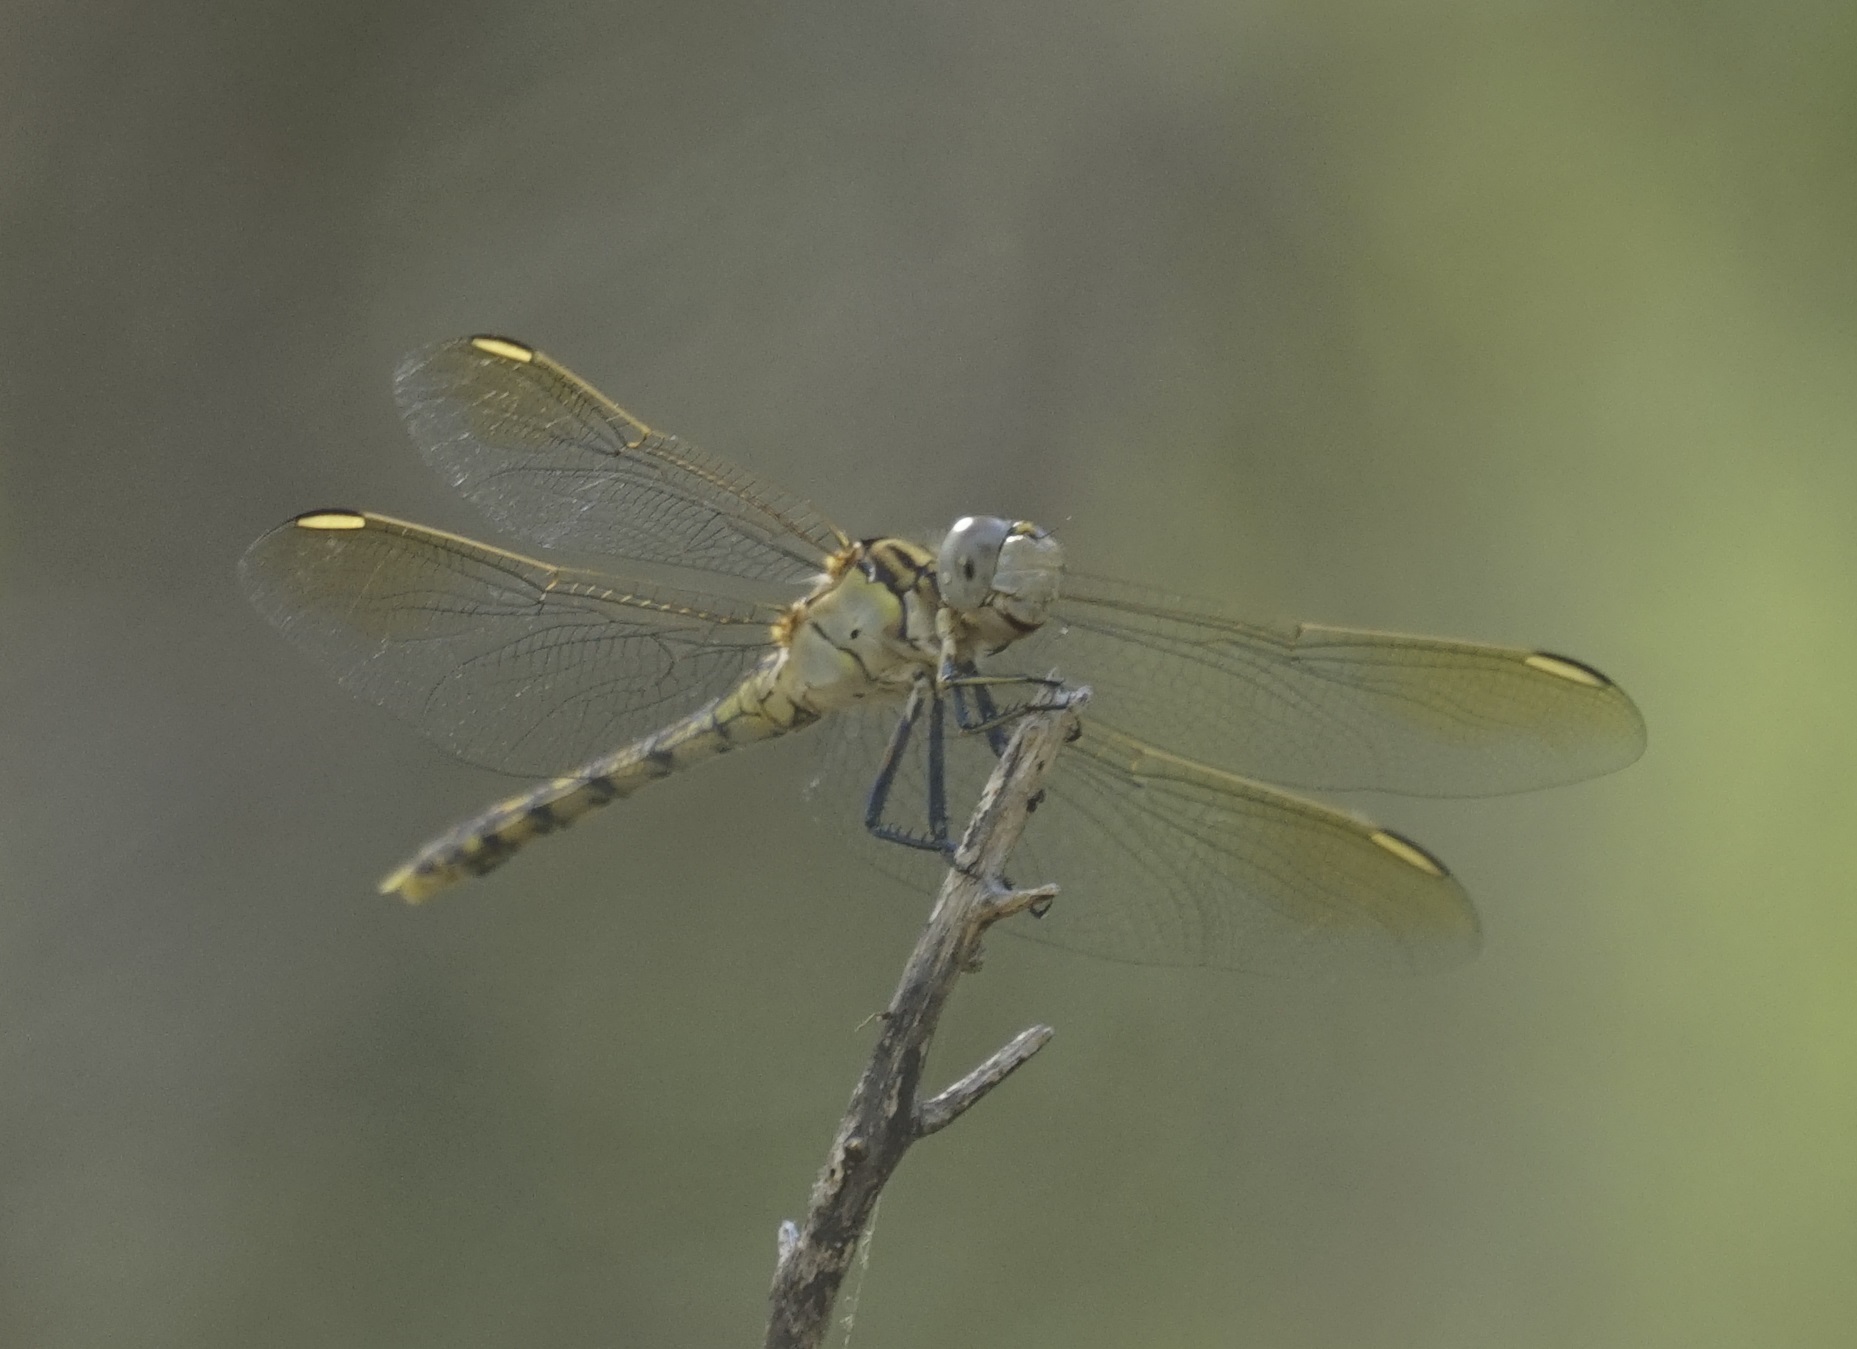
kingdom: Animalia
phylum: Arthropoda
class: Insecta
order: Odonata
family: Libellulidae
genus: Orthetrum
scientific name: Orthetrum caledonicum
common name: Blue skimmer
